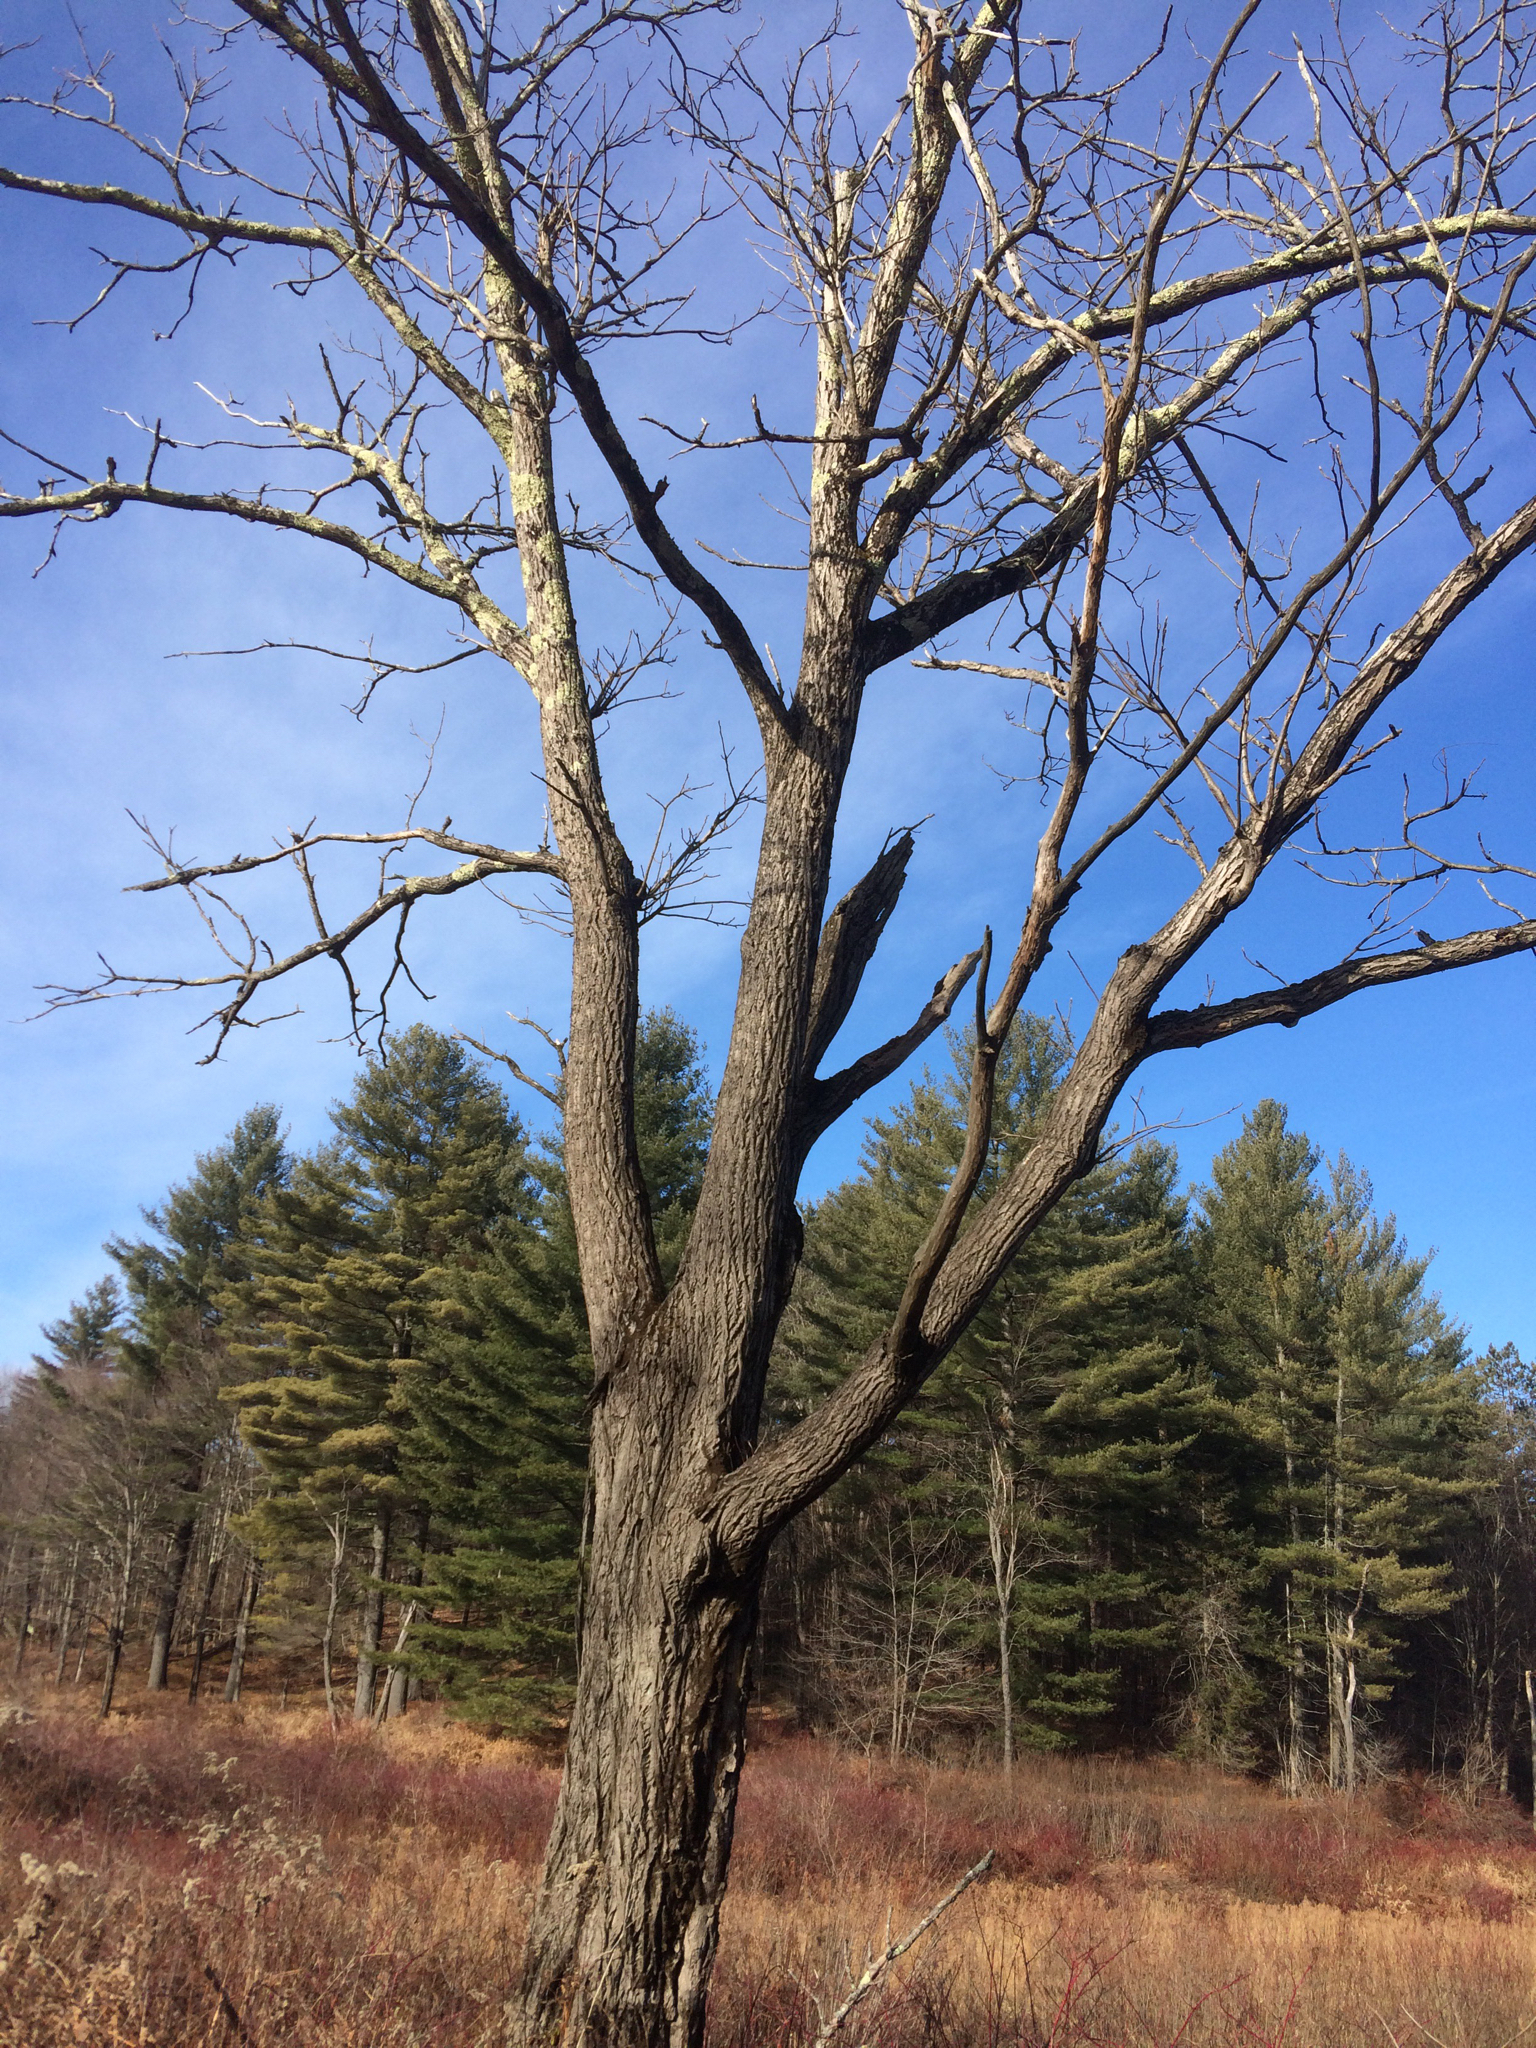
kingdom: Plantae
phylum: Tracheophyta
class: Magnoliopsida
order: Fagales
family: Juglandaceae
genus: Juglans
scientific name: Juglans cinerea
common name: Butternut
